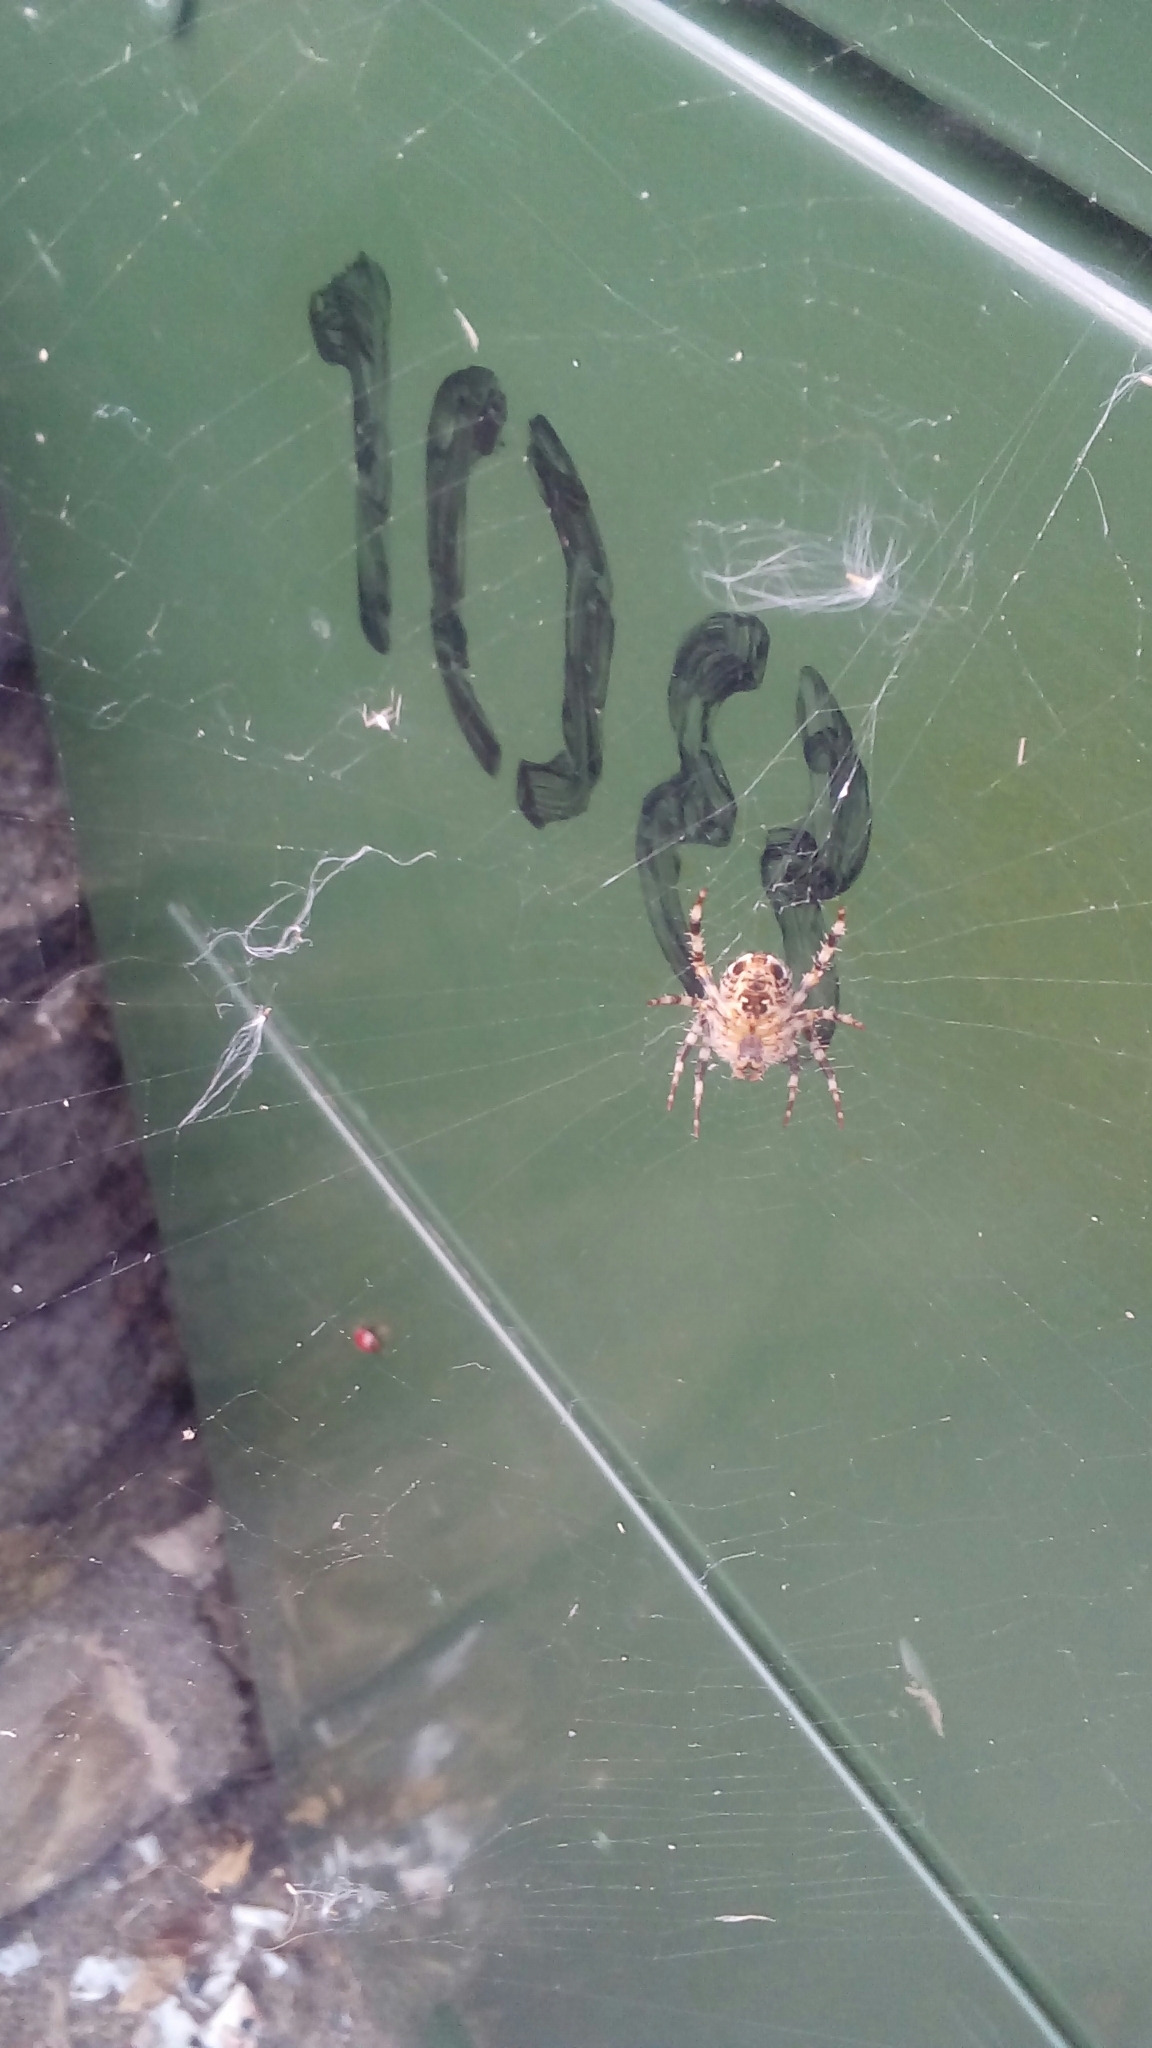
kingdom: Animalia
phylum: Arthropoda
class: Arachnida
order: Araneae
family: Araneidae
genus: Araneus
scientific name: Araneus diadematus
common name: Cross orbweaver
